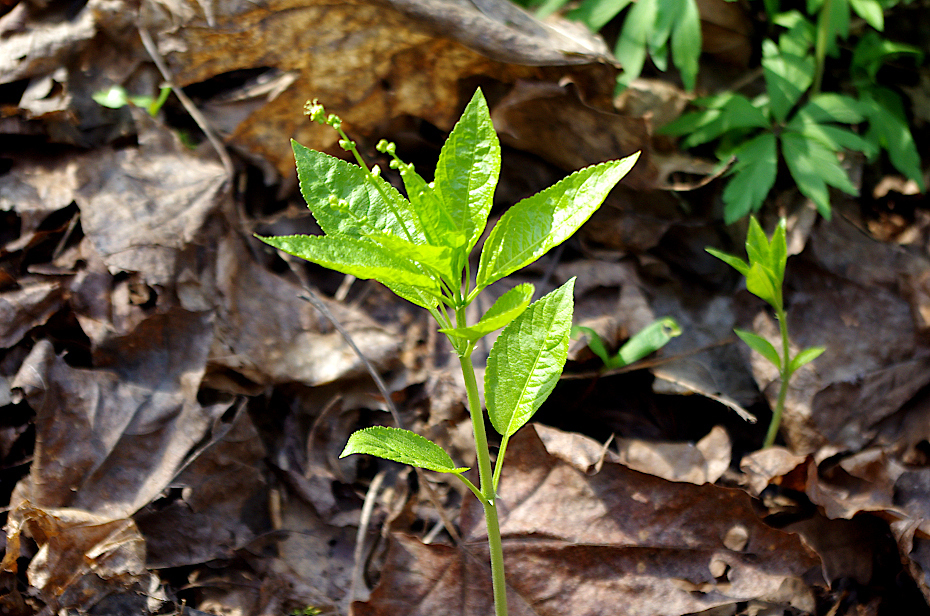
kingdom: Plantae
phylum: Tracheophyta
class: Magnoliopsida
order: Malpighiales
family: Euphorbiaceae
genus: Mercurialis
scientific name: Mercurialis perennis
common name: Dog mercury
